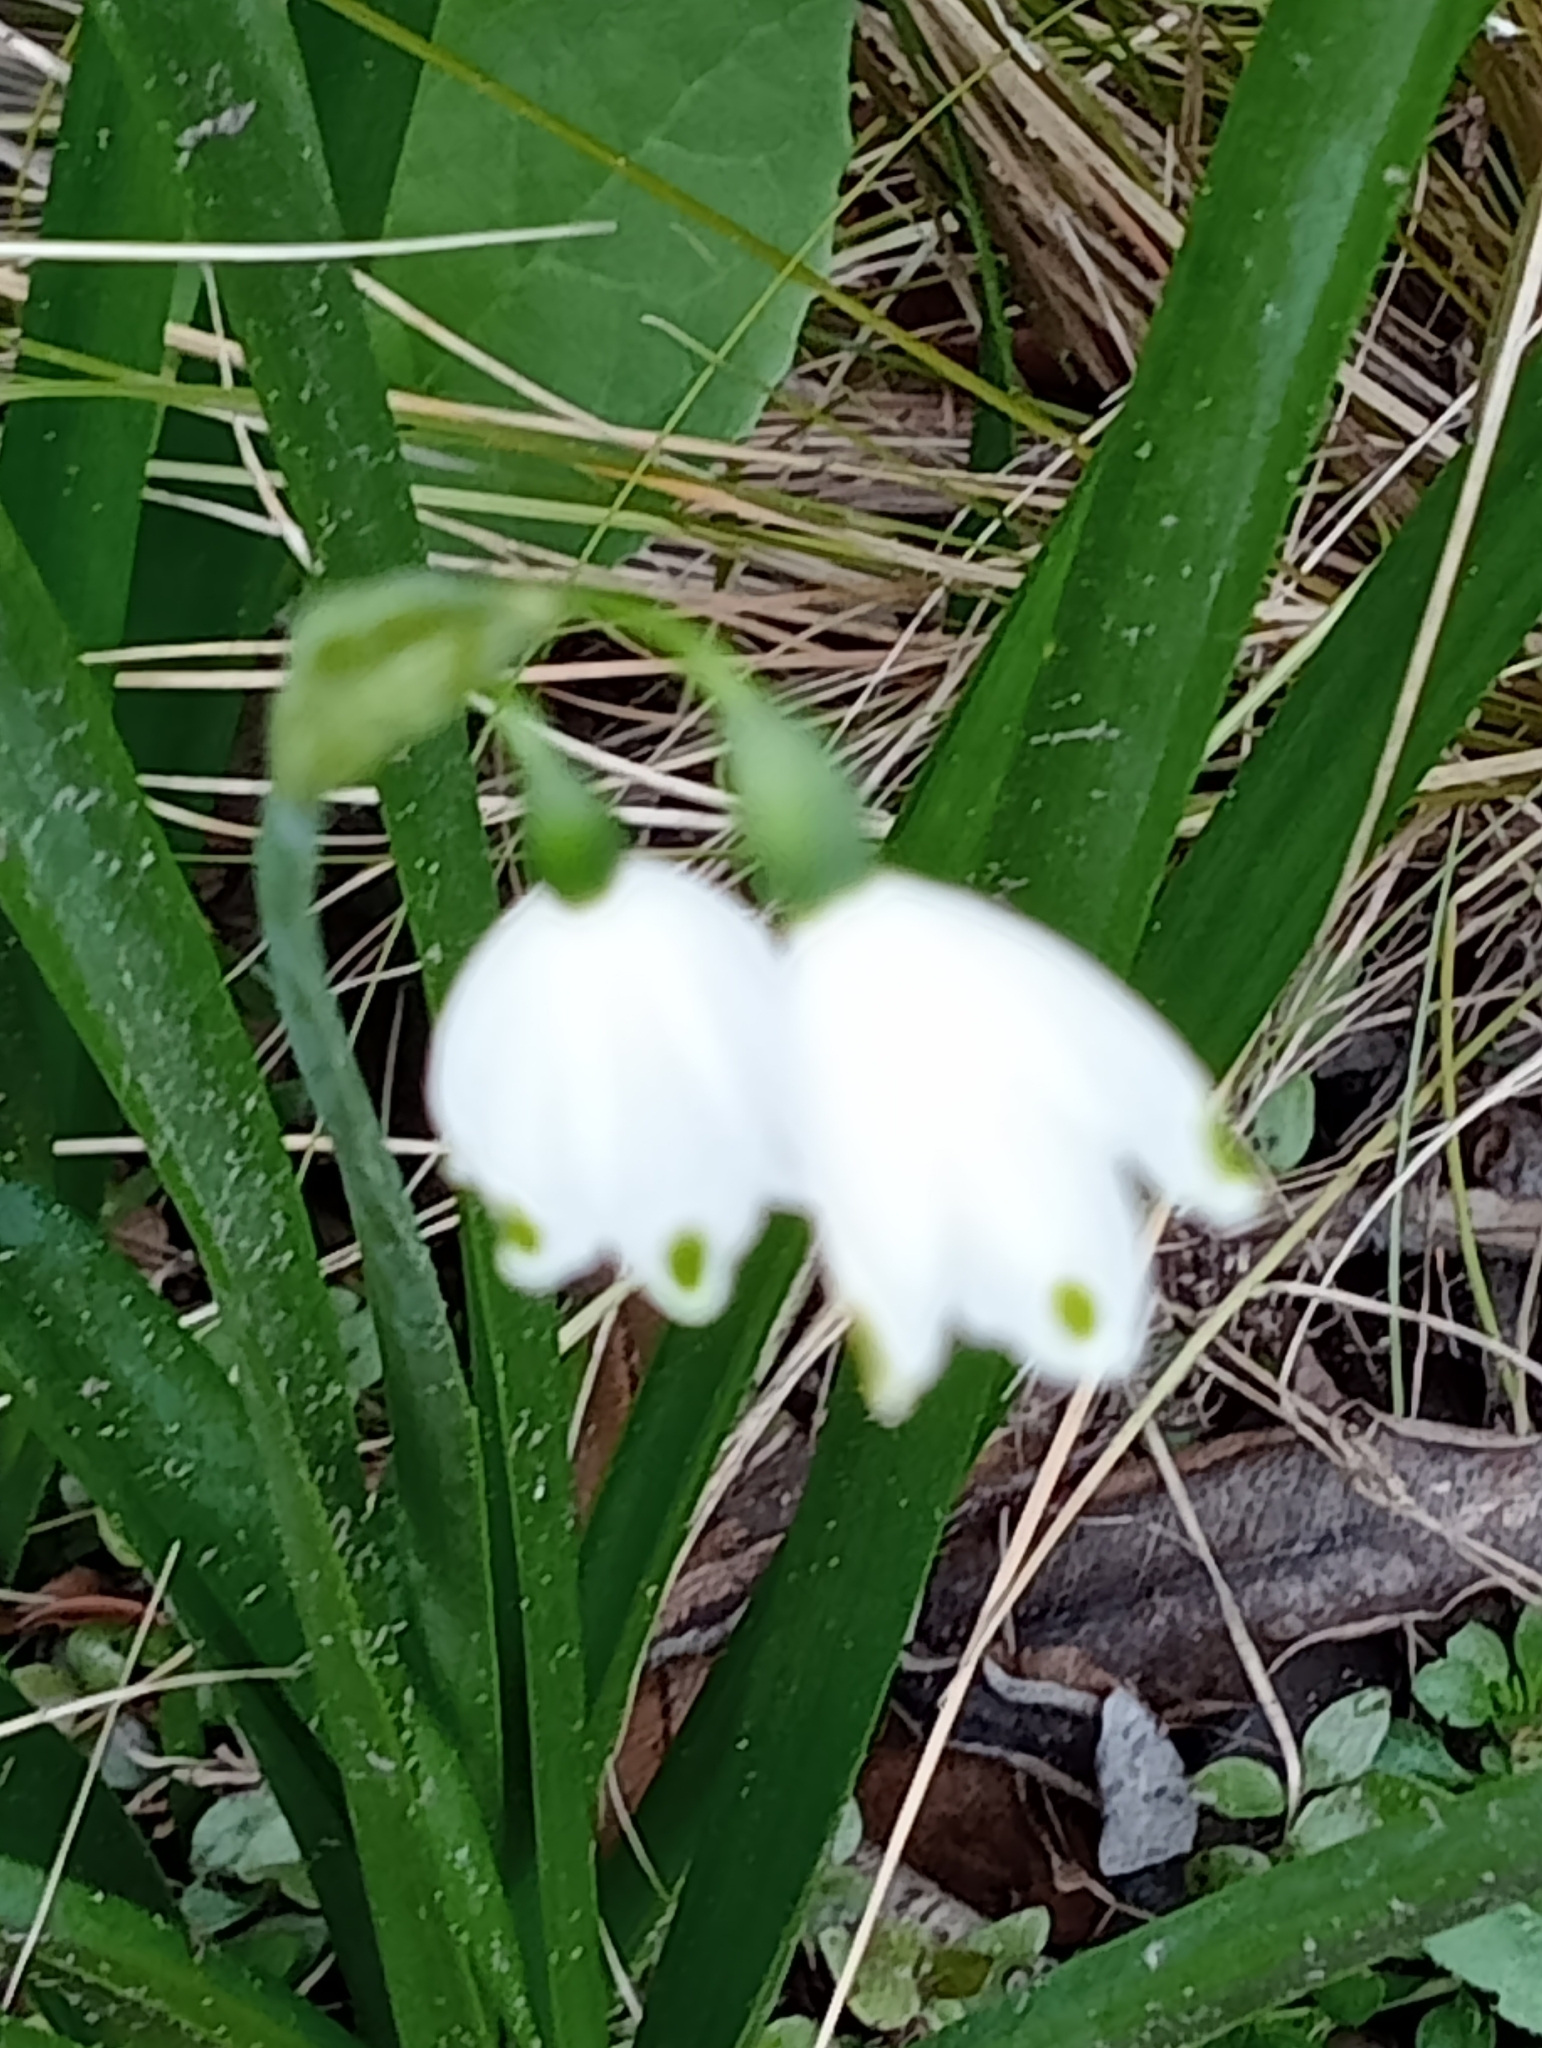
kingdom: Plantae
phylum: Tracheophyta
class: Liliopsida
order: Asparagales
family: Amaryllidaceae
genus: Leucojum
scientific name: Leucojum aestivum
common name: Summer snowflake
